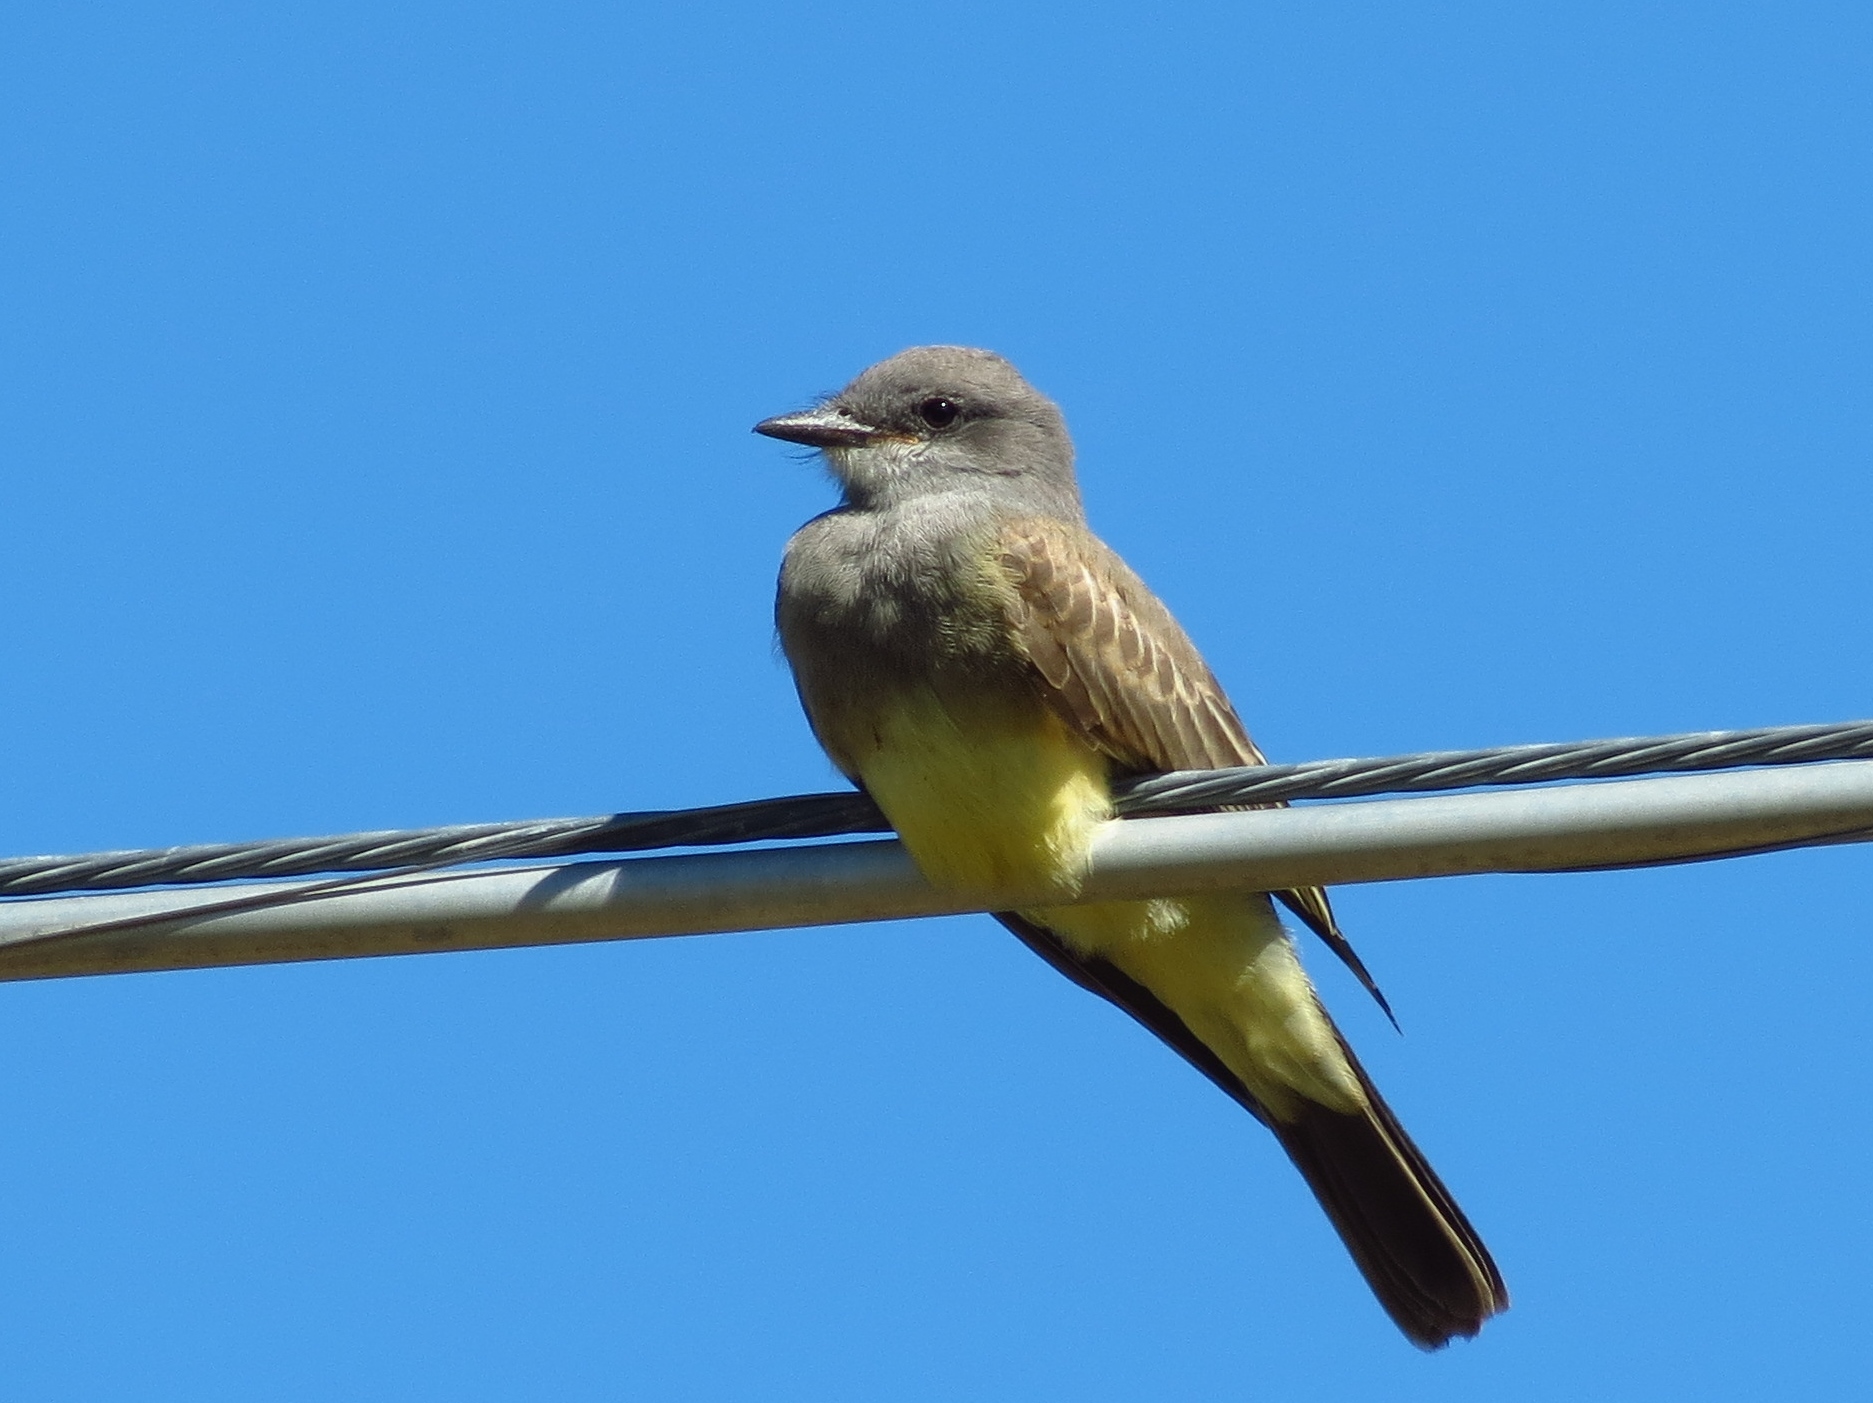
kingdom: Animalia
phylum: Chordata
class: Aves
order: Passeriformes
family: Tyrannidae
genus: Tyrannus
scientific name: Tyrannus vociferans
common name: Cassin's kingbird
